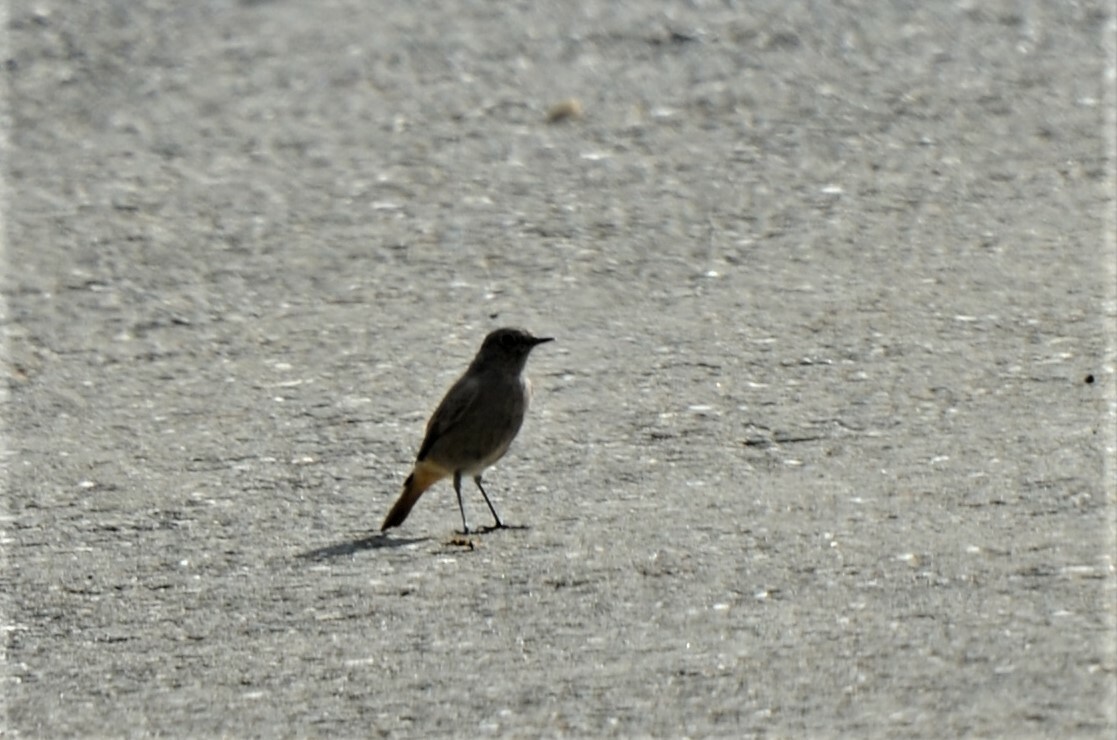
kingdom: Animalia
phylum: Chordata
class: Aves
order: Passeriformes
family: Muscicapidae
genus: Phoenicurus
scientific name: Phoenicurus ochruros
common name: Black redstart
